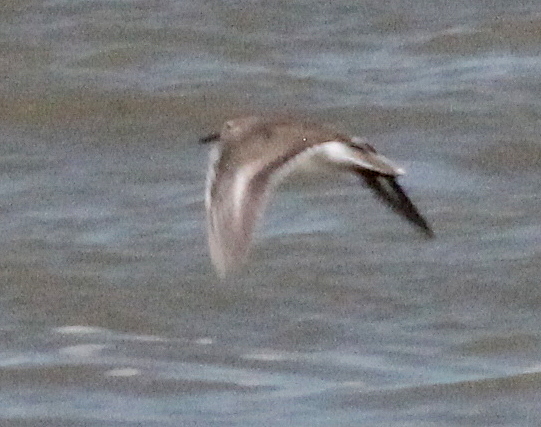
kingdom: Animalia
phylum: Chordata
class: Aves
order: Charadriiformes
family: Scolopacidae
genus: Actitis
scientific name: Actitis macularius
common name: Spotted sandpiper
